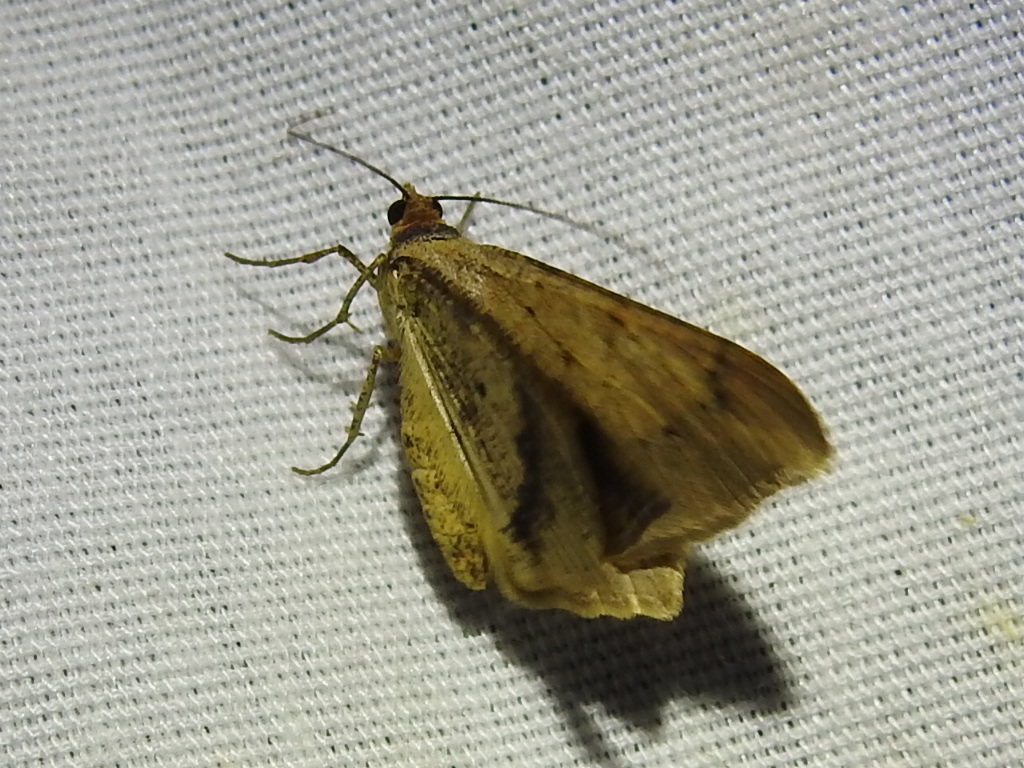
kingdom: Animalia
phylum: Arthropoda
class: Insecta
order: Lepidoptera
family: Geometridae
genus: Macaria
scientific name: Macaria abydata
